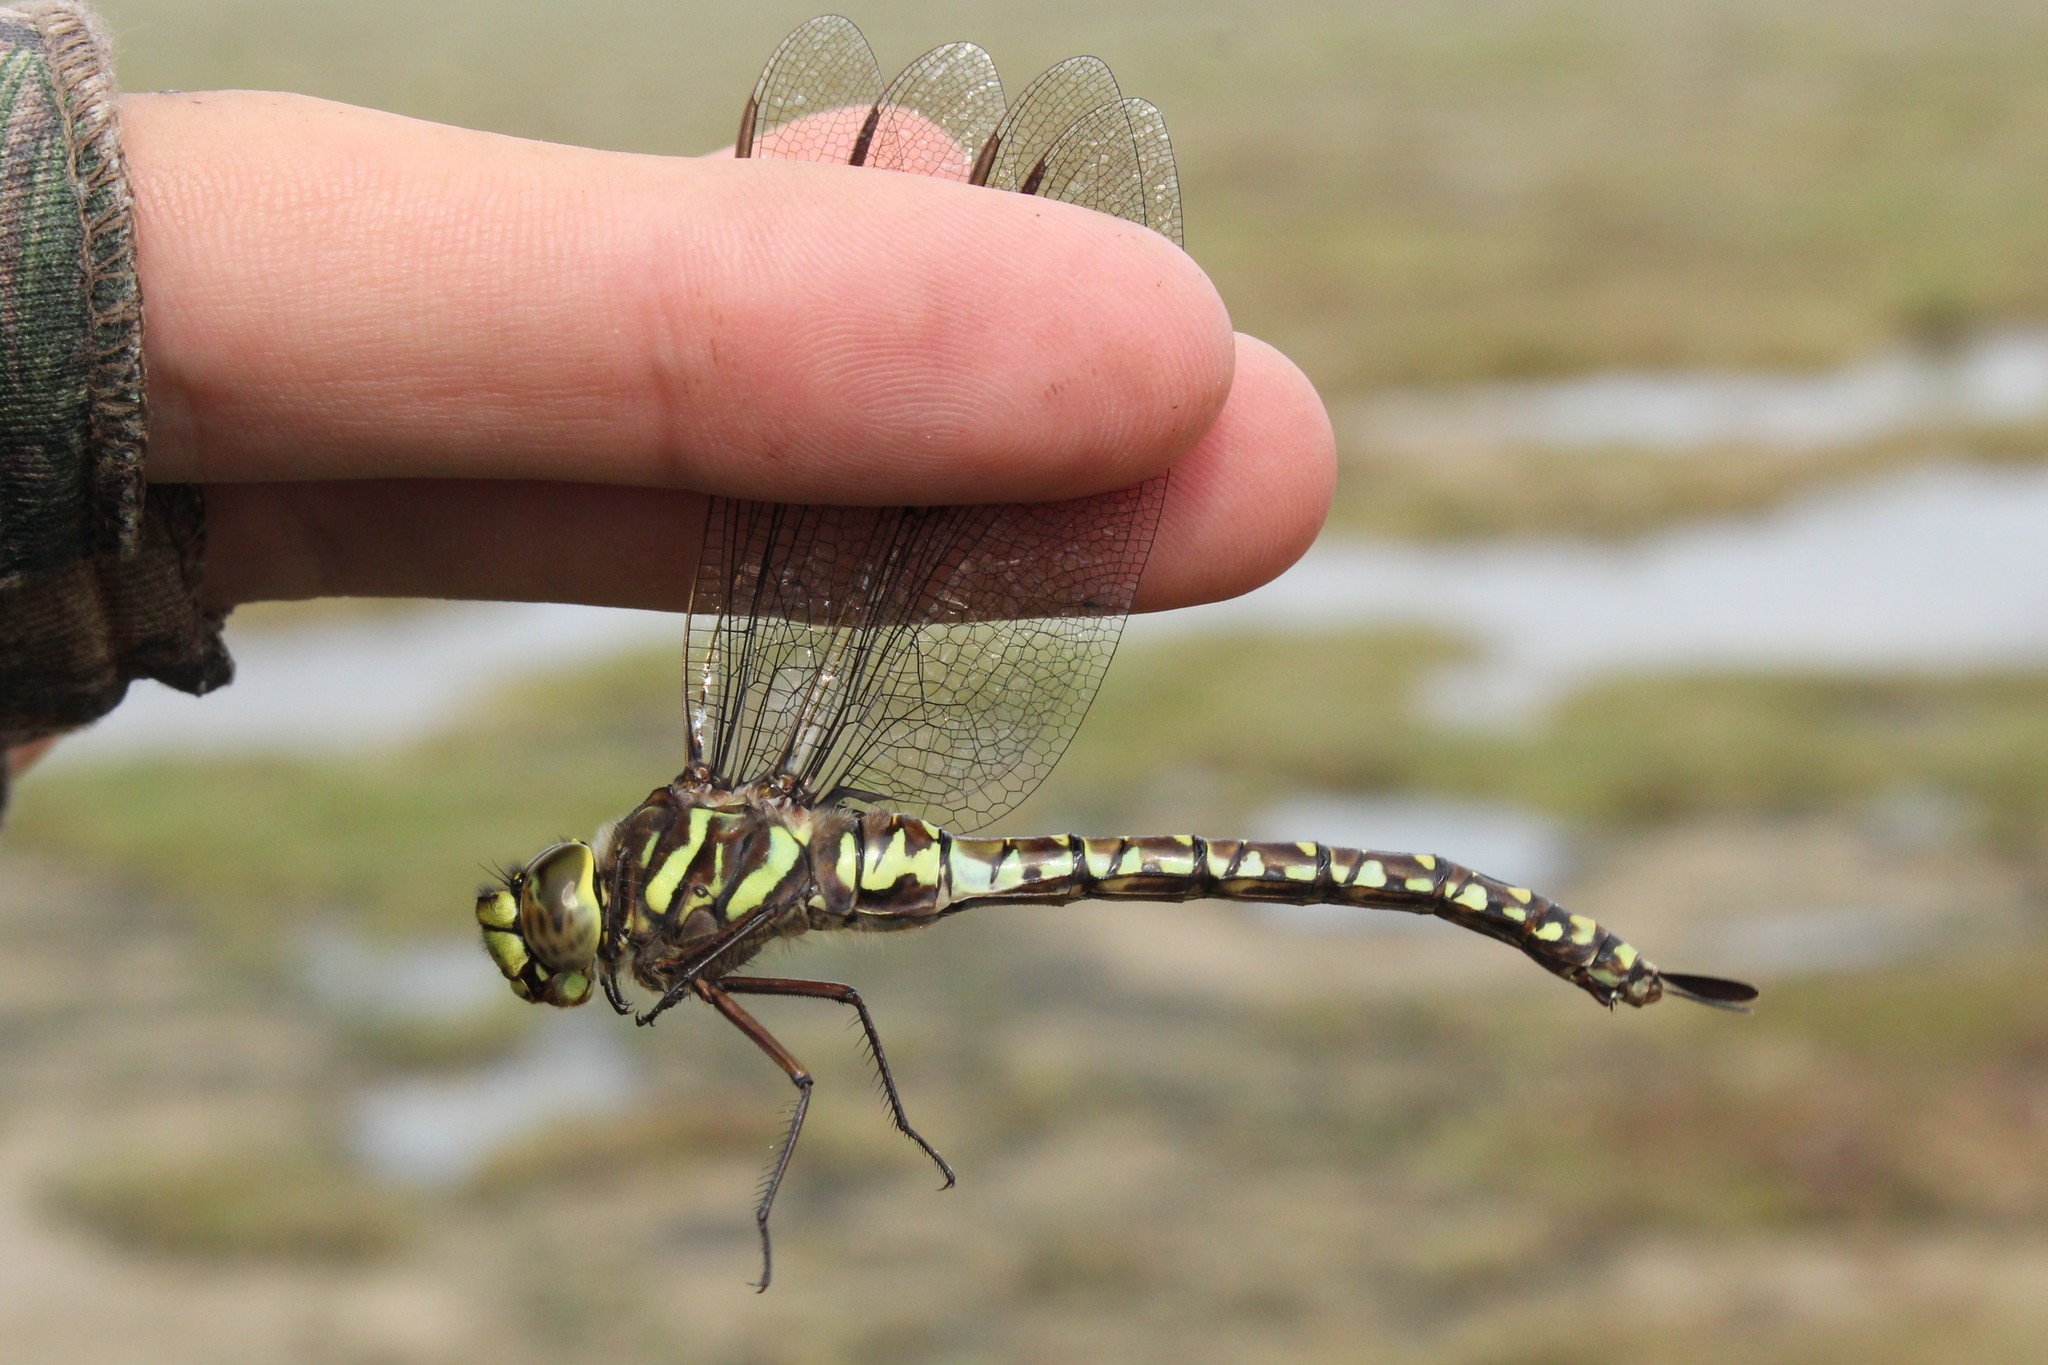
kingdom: Animalia
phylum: Arthropoda
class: Insecta
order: Odonata
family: Aeshnidae
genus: Aeshna
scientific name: Aeshna subarctica
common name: Subarctic darner
